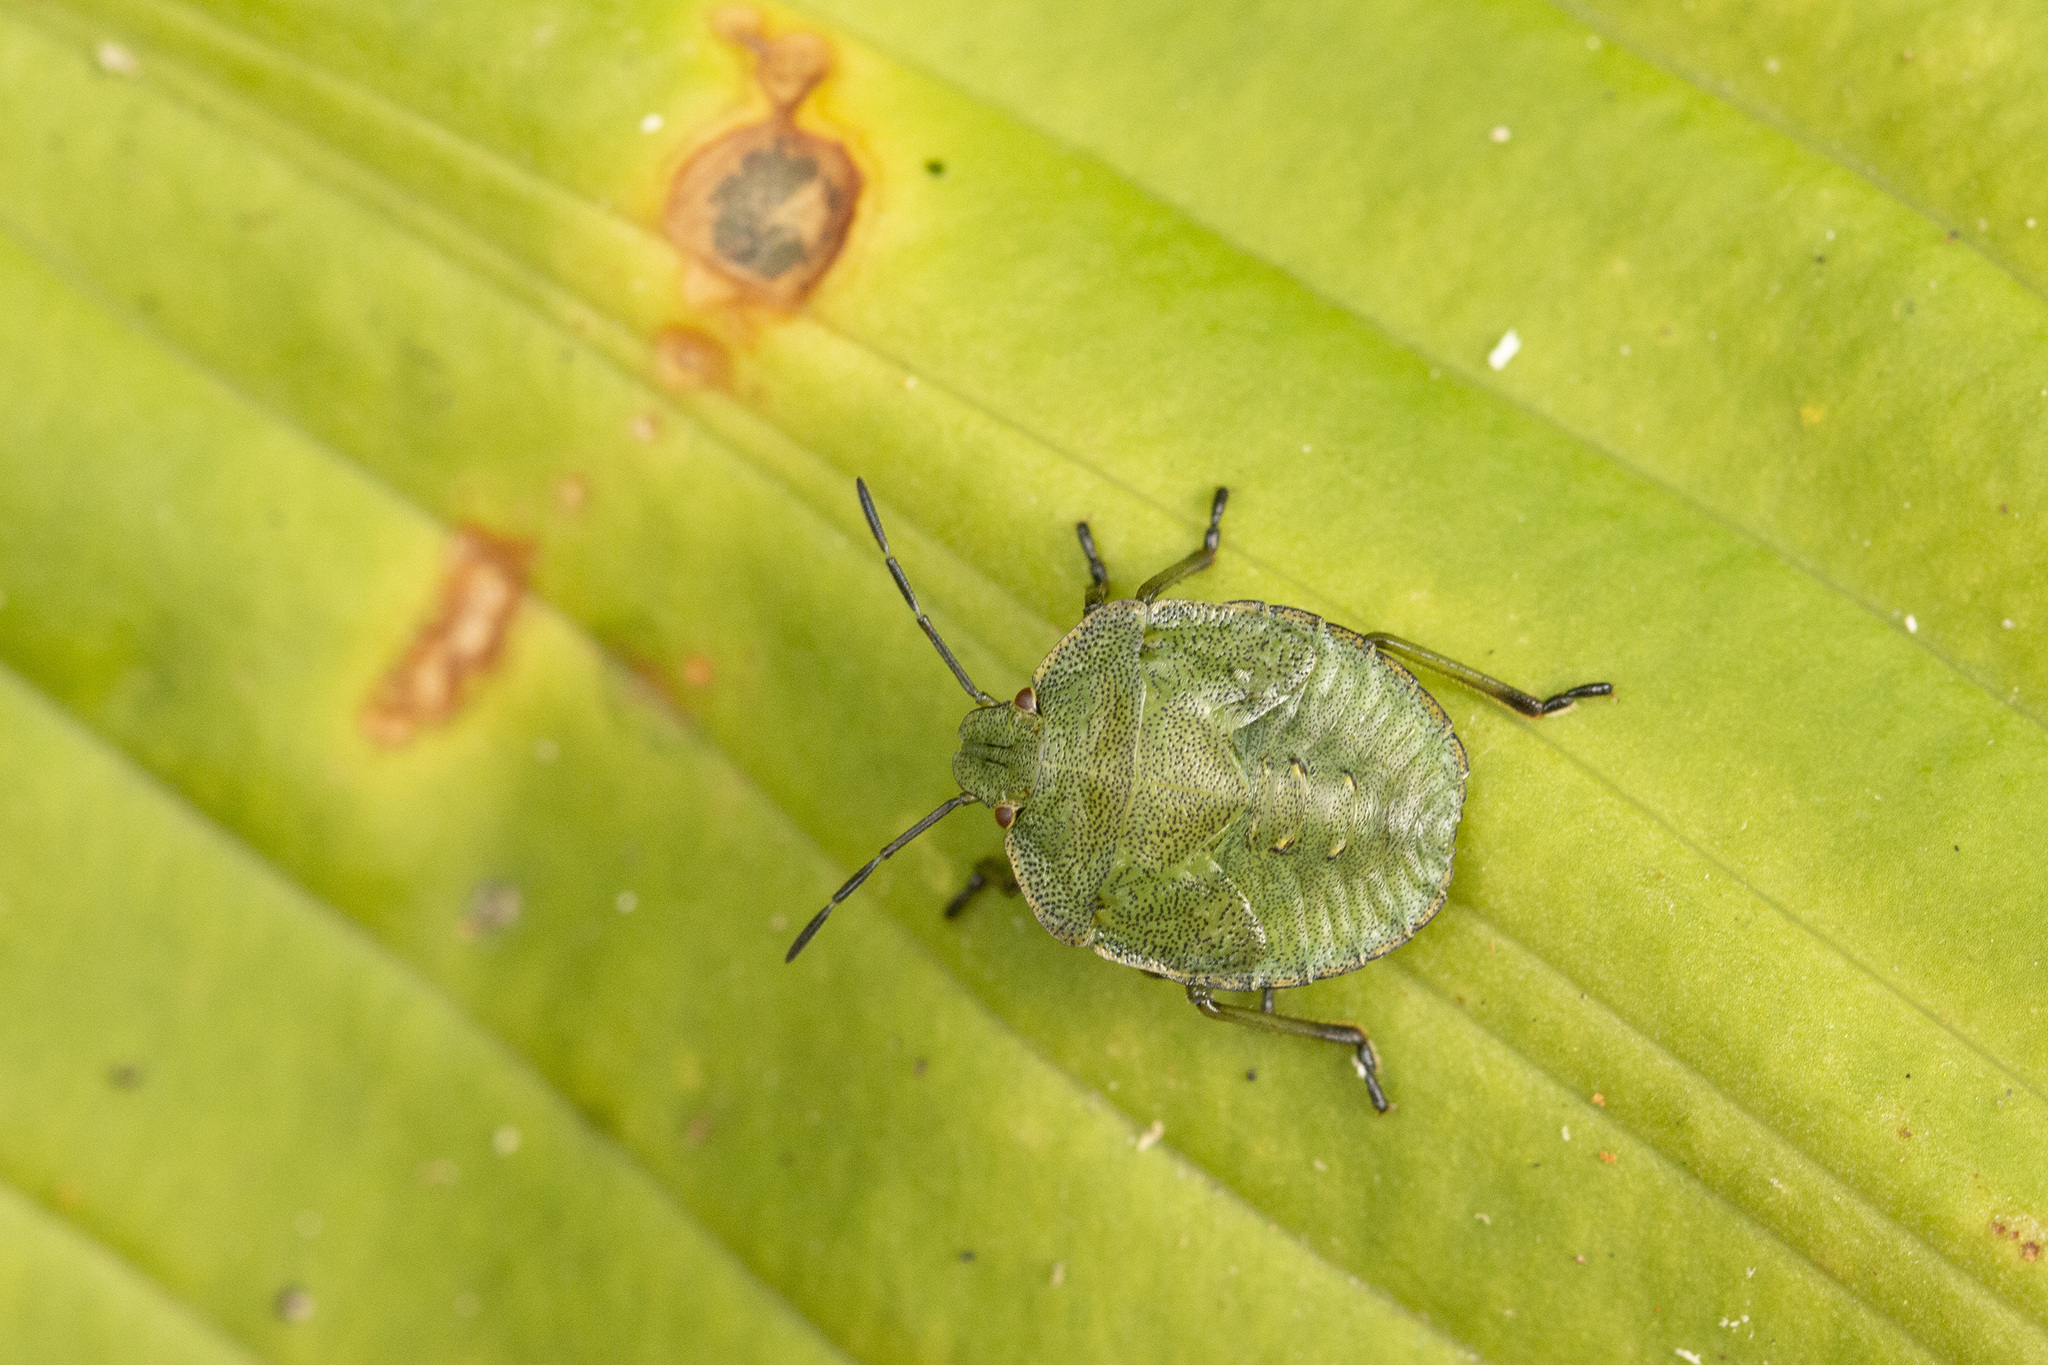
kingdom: Animalia
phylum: Arthropoda
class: Insecta
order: Hemiptera
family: Pentatomidae
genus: Palomena
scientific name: Palomena prasina
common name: Green shieldbug
